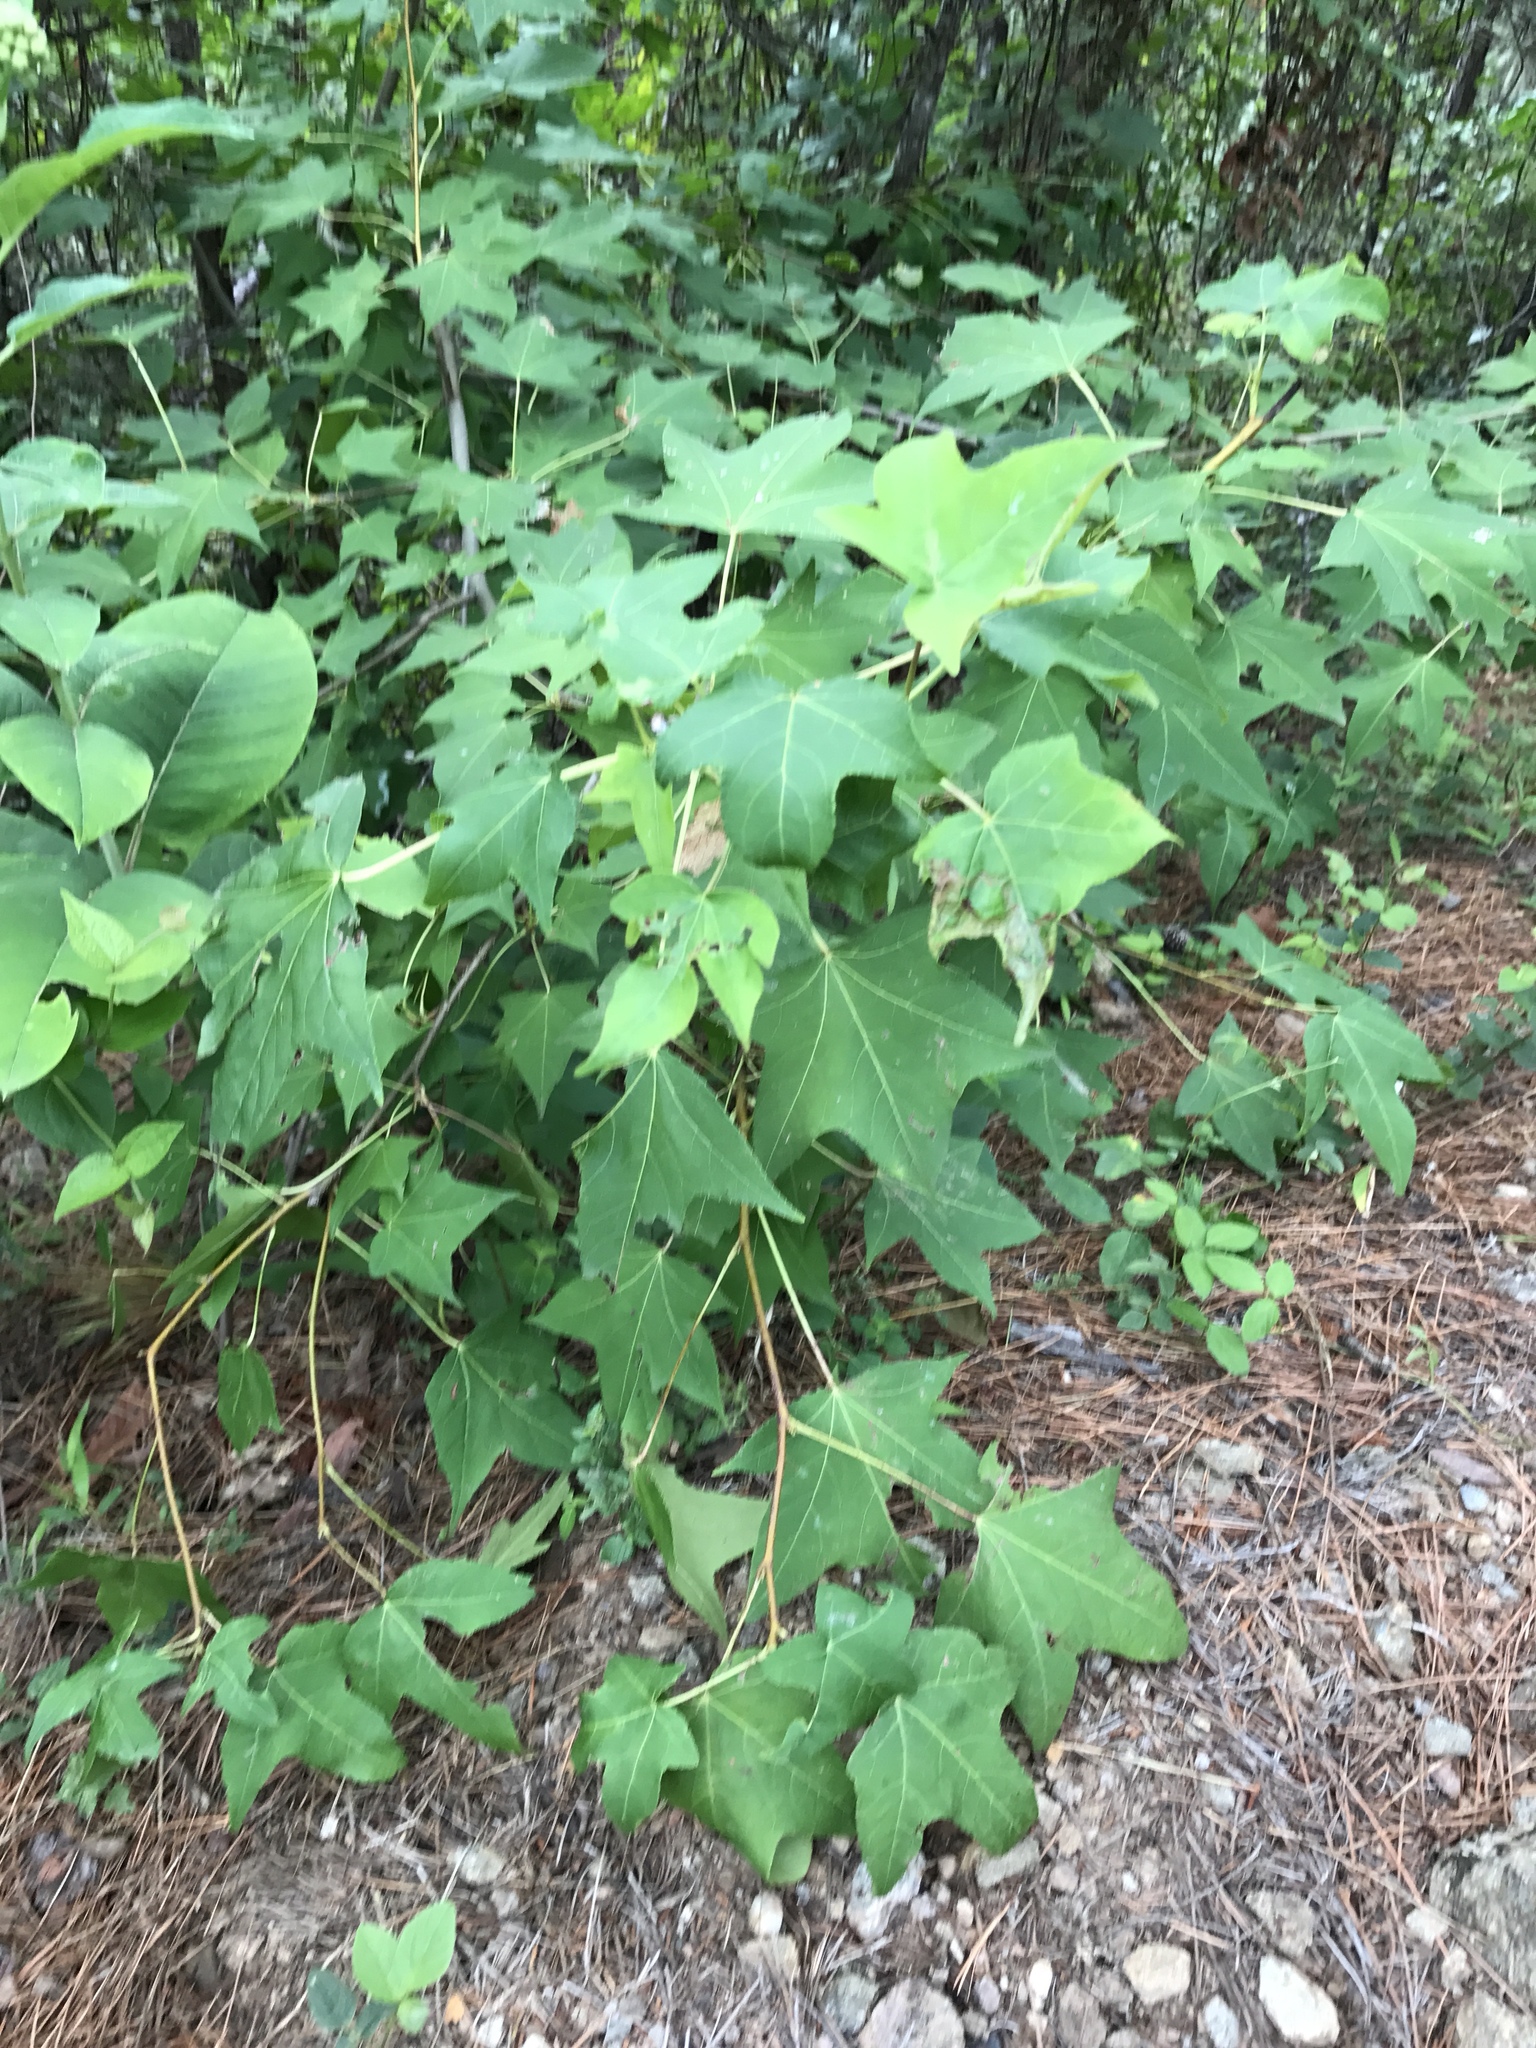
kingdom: Plantae
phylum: Tracheophyta
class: Magnoliopsida
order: Saxifragales
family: Altingiaceae
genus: Liquidambar
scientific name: Liquidambar styraciflua
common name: Sweet gum
